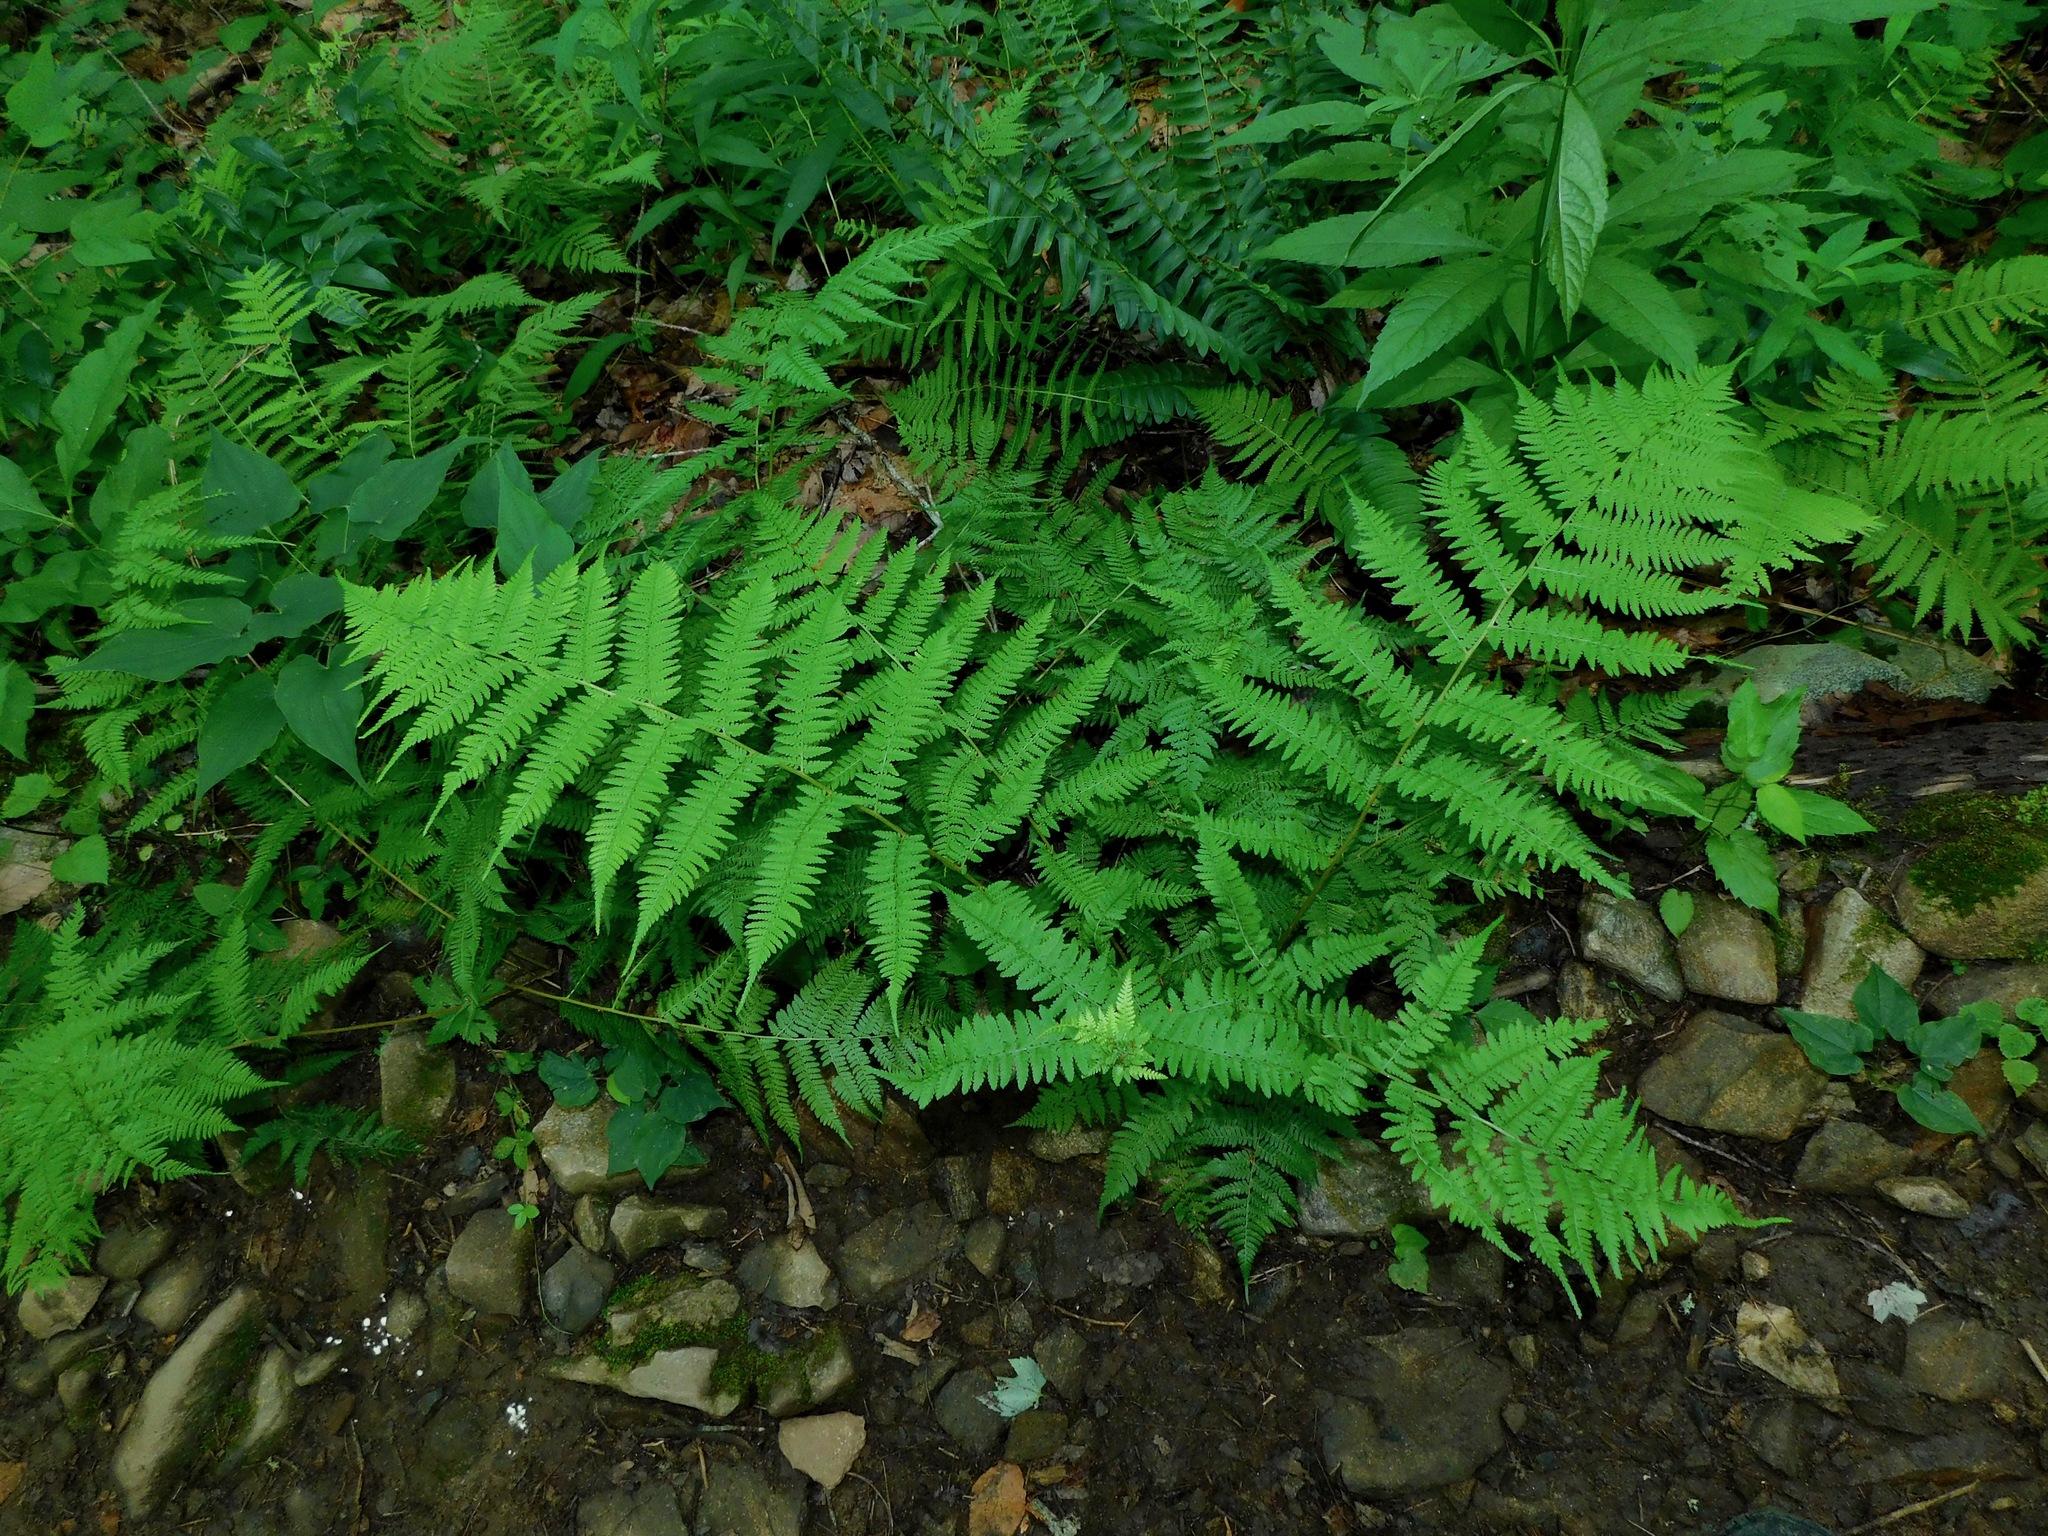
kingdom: Plantae
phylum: Tracheophyta
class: Polypodiopsida
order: Polypodiales
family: Athyriaceae
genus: Athyrium
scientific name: Athyrium asplenioides
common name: Southern lady fern
